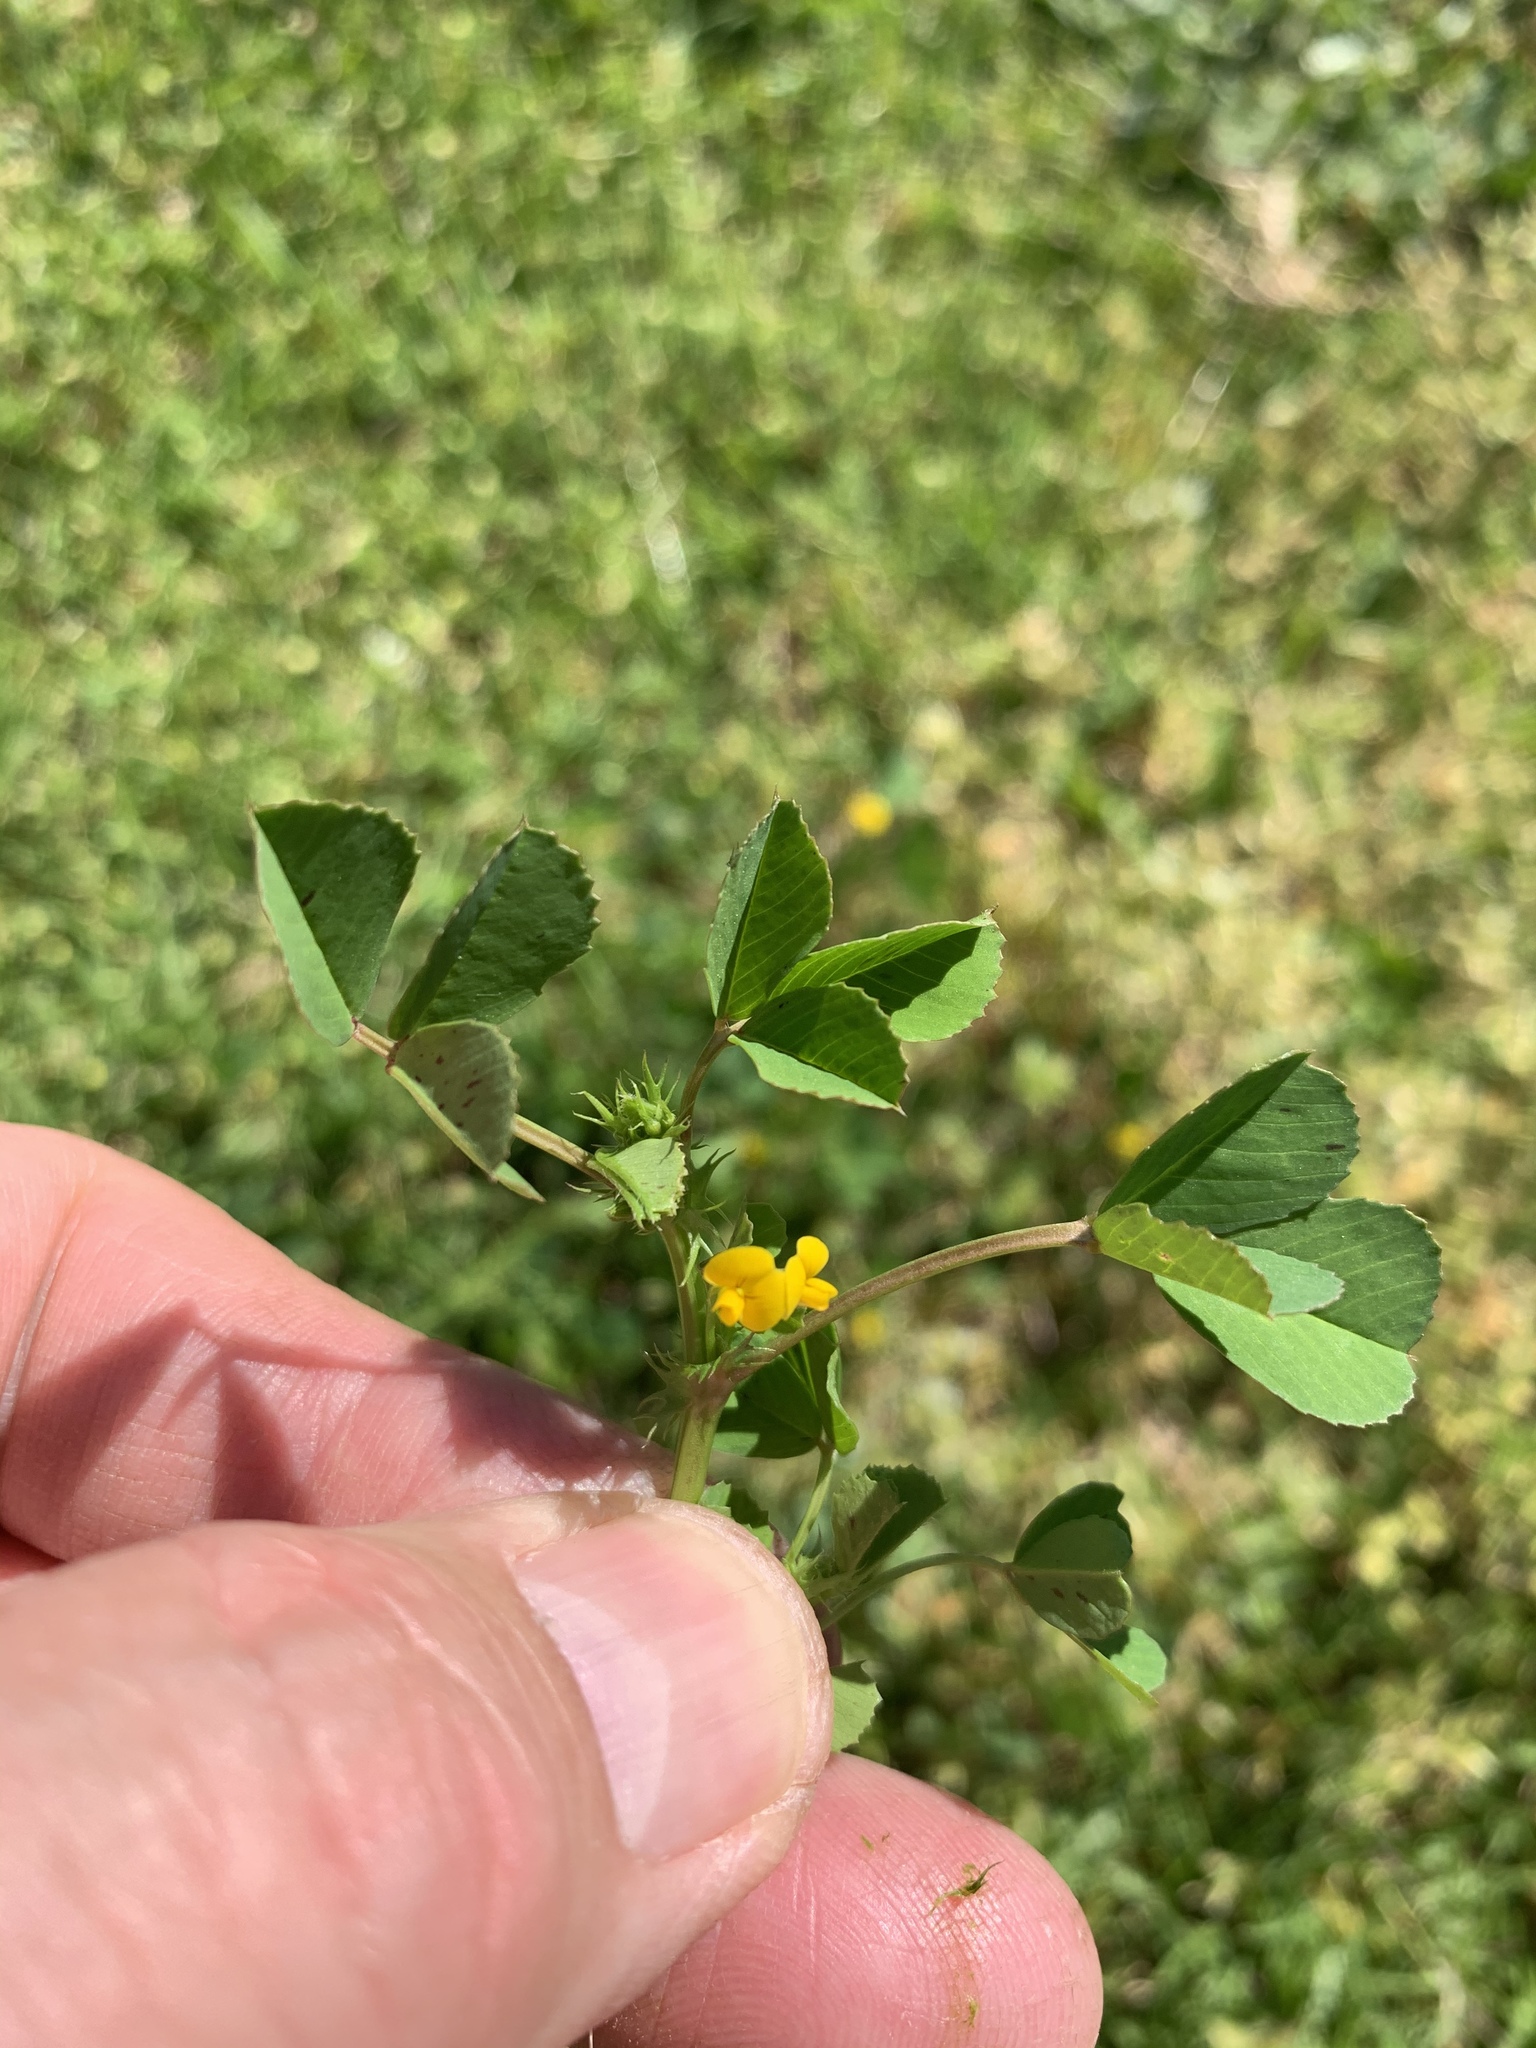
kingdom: Plantae
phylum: Tracheophyta
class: Magnoliopsida
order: Fabales
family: Fabaceae
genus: Medicago
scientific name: Medicago polymorpha
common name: Burclover
